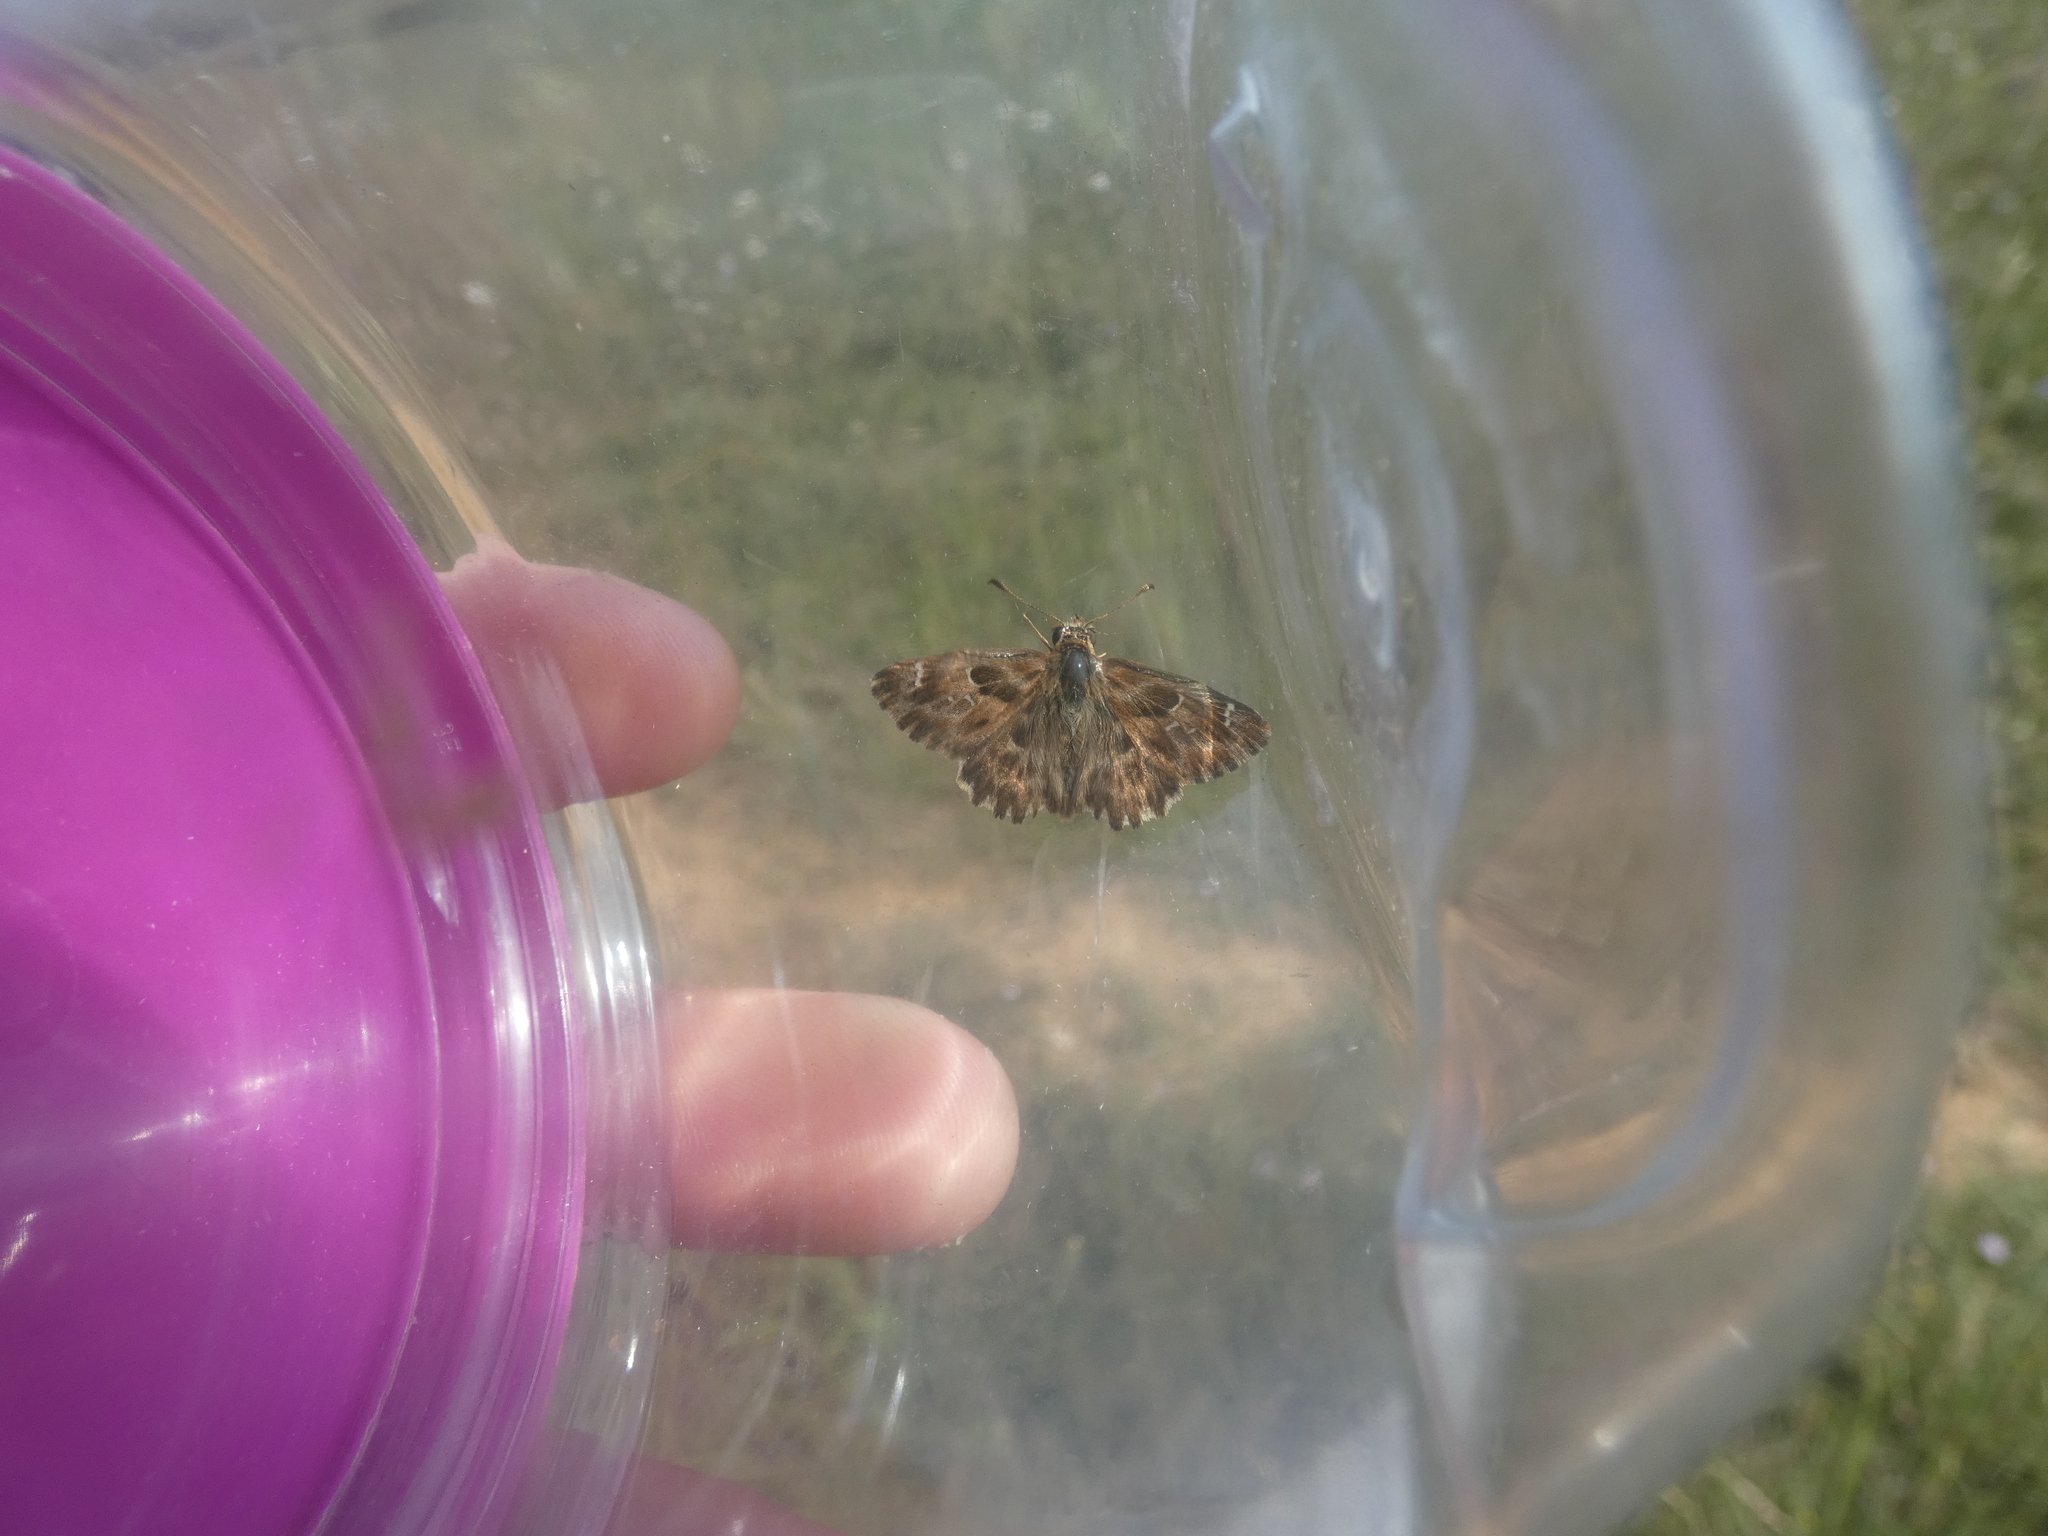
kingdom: Animalia
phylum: Arthropoda
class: Insecta
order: Lepidoptera
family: Hesperiidae
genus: Carcharodus
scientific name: Carcharodus alceae
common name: Mallow skipper
